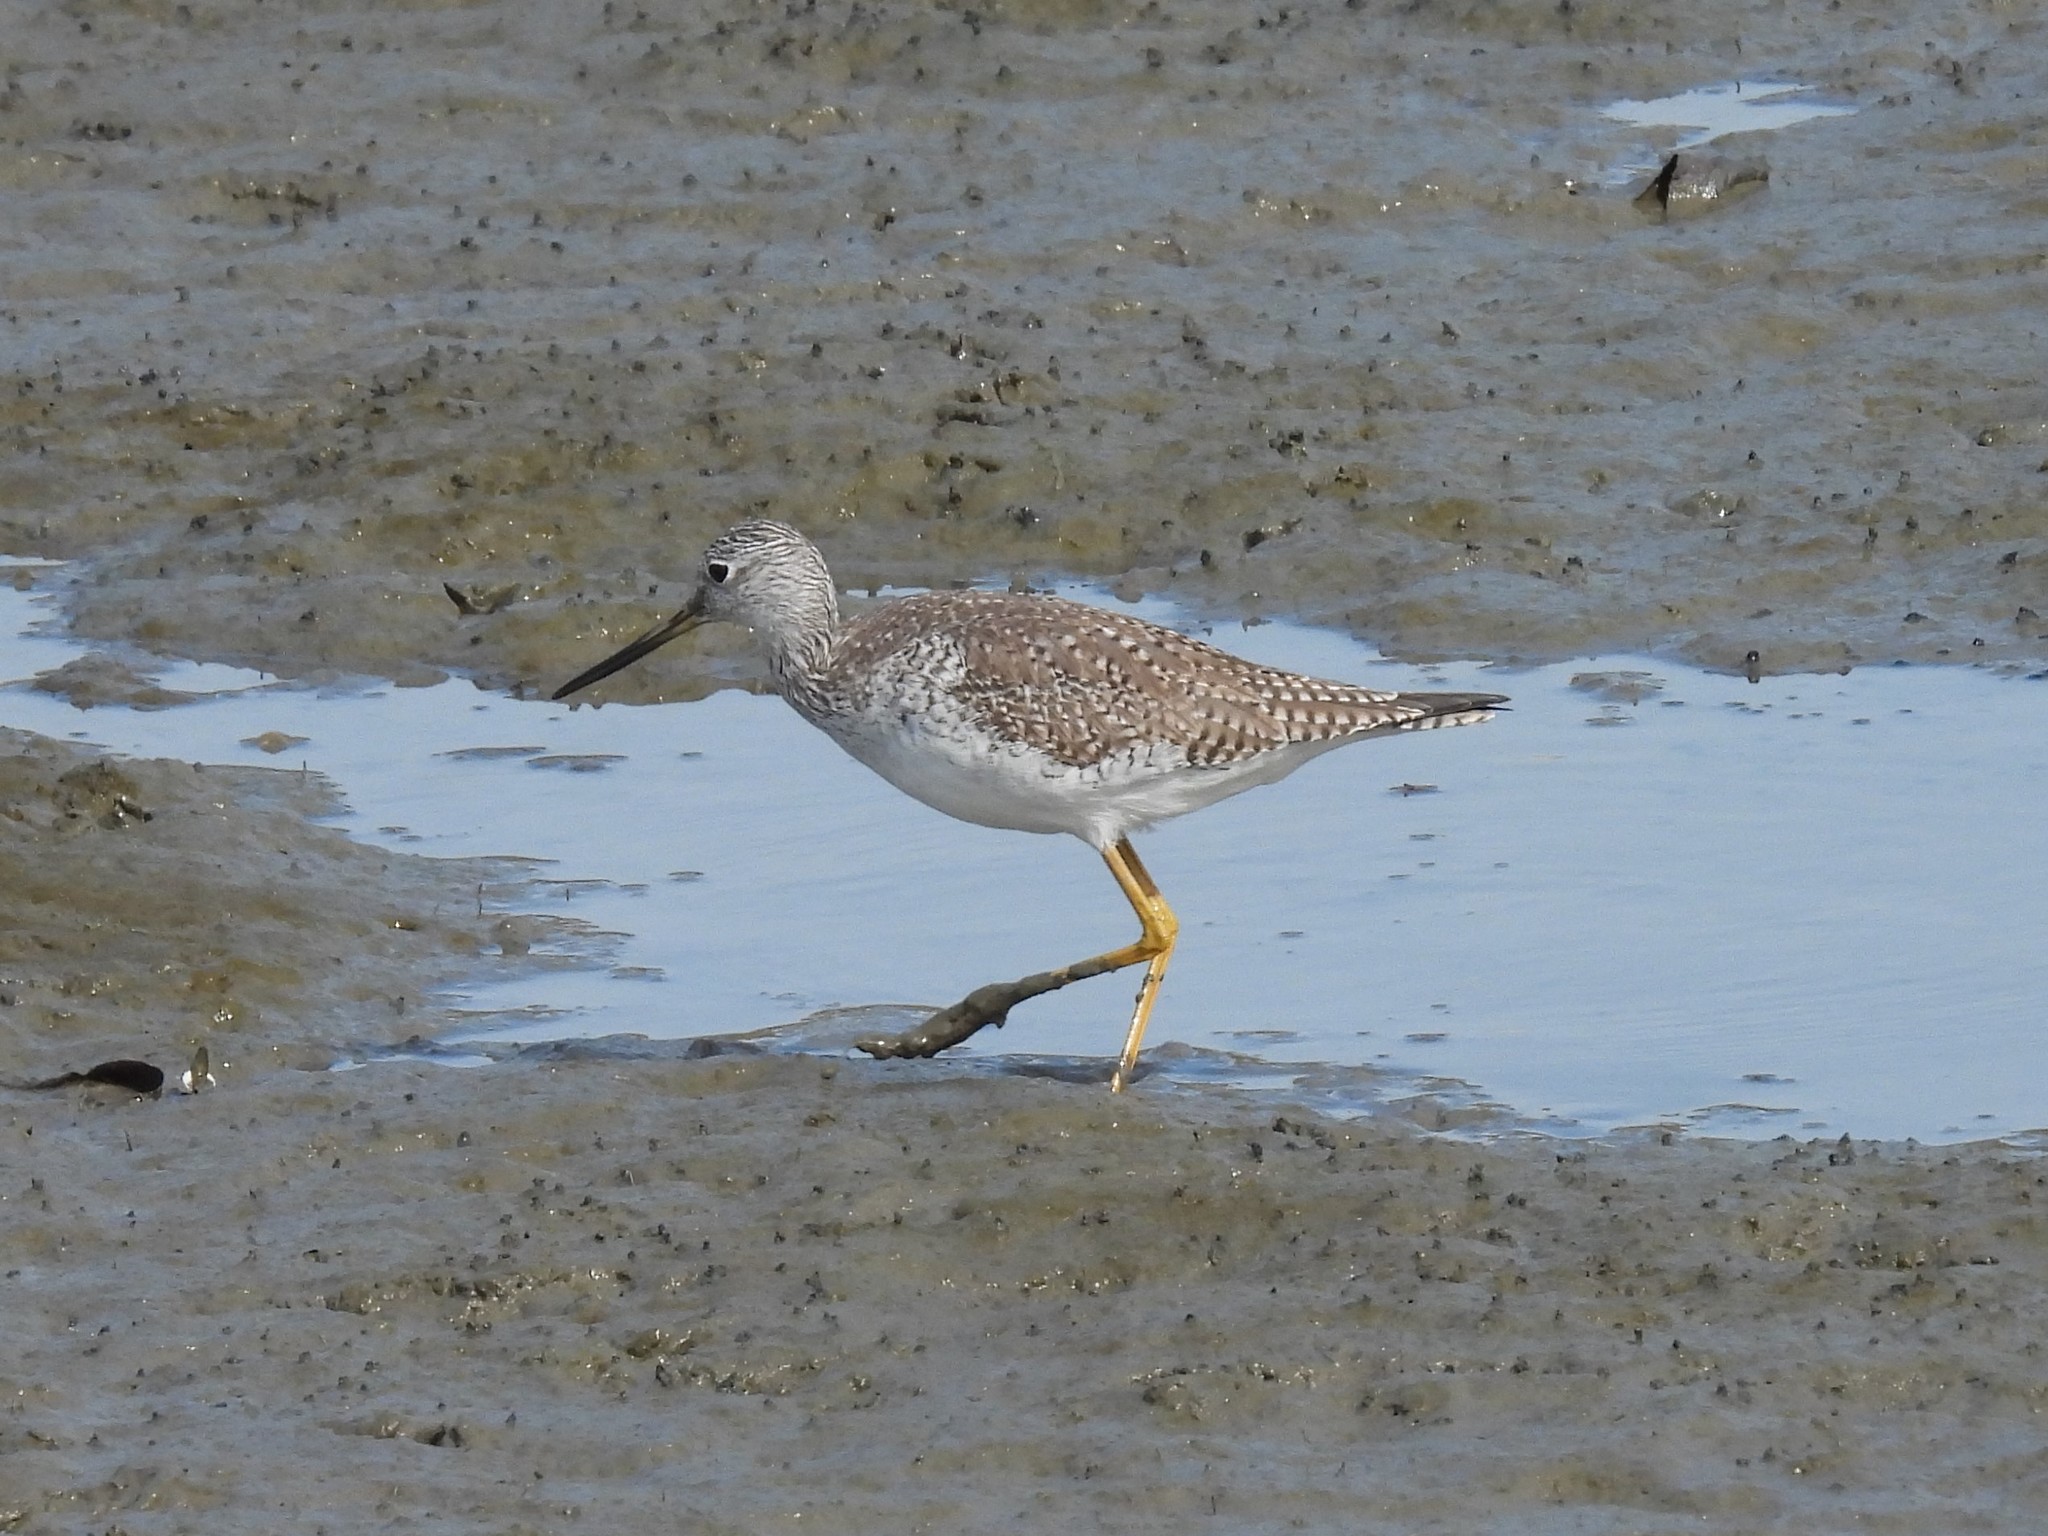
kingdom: Animalia
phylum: Chordata
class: Aves
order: Charadriiformes
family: Scolopacidae
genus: Tringa
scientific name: Tringa melanoleuca
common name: Greater yellowlegs
